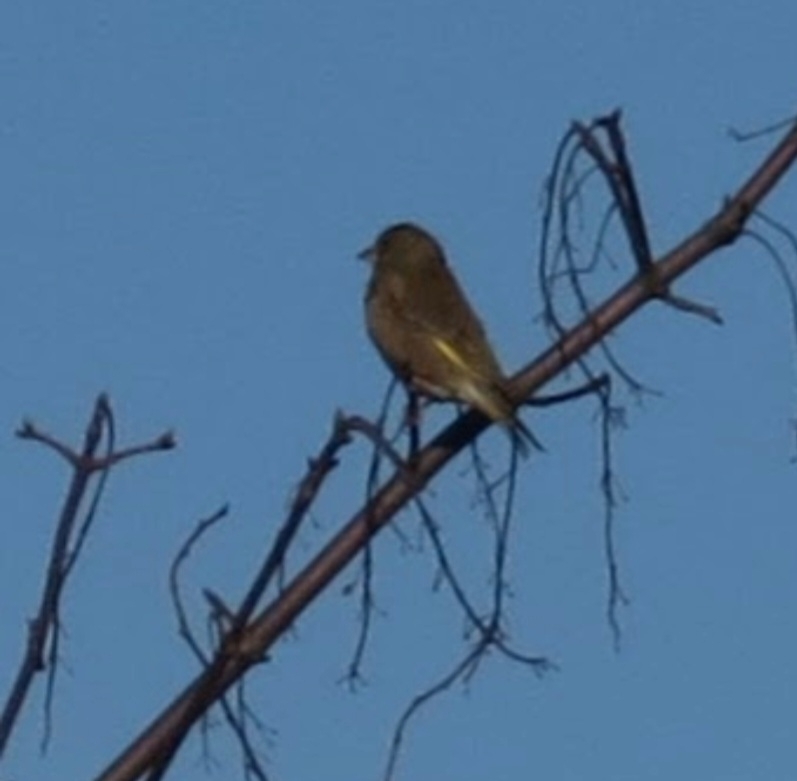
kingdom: Plantae
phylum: Tracheophyta
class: Liliopsida
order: Poales
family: Poaceae
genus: Chloris
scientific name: Chloris chloris
